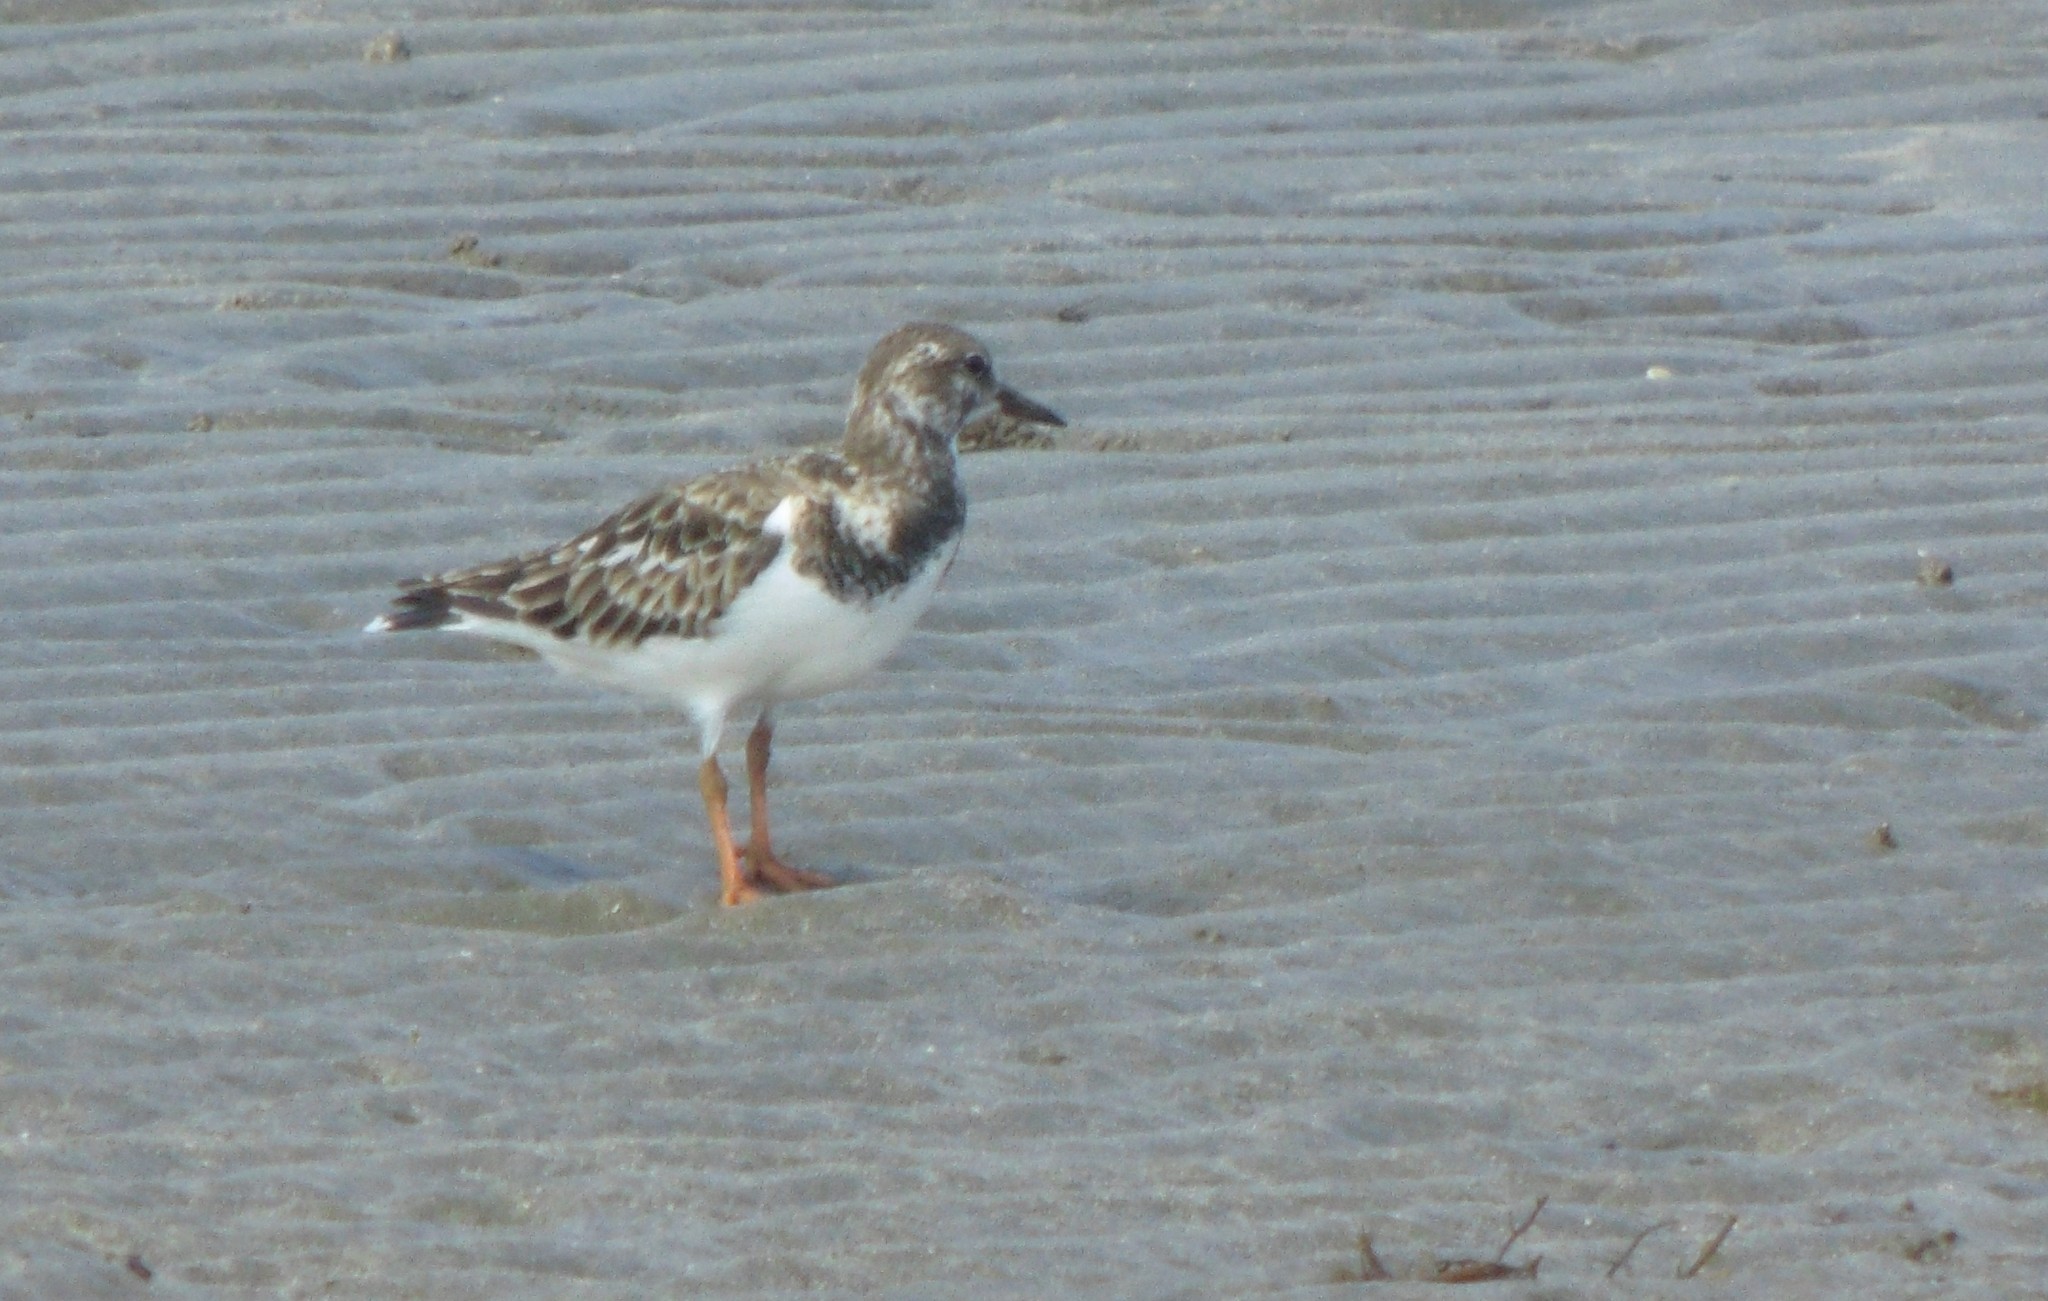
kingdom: Animalia
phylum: Chordata
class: Aves
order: Charadriiformes
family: Scolopacidae
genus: Arenaria
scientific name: Arenaria interpres
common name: Ruddy turnstone
